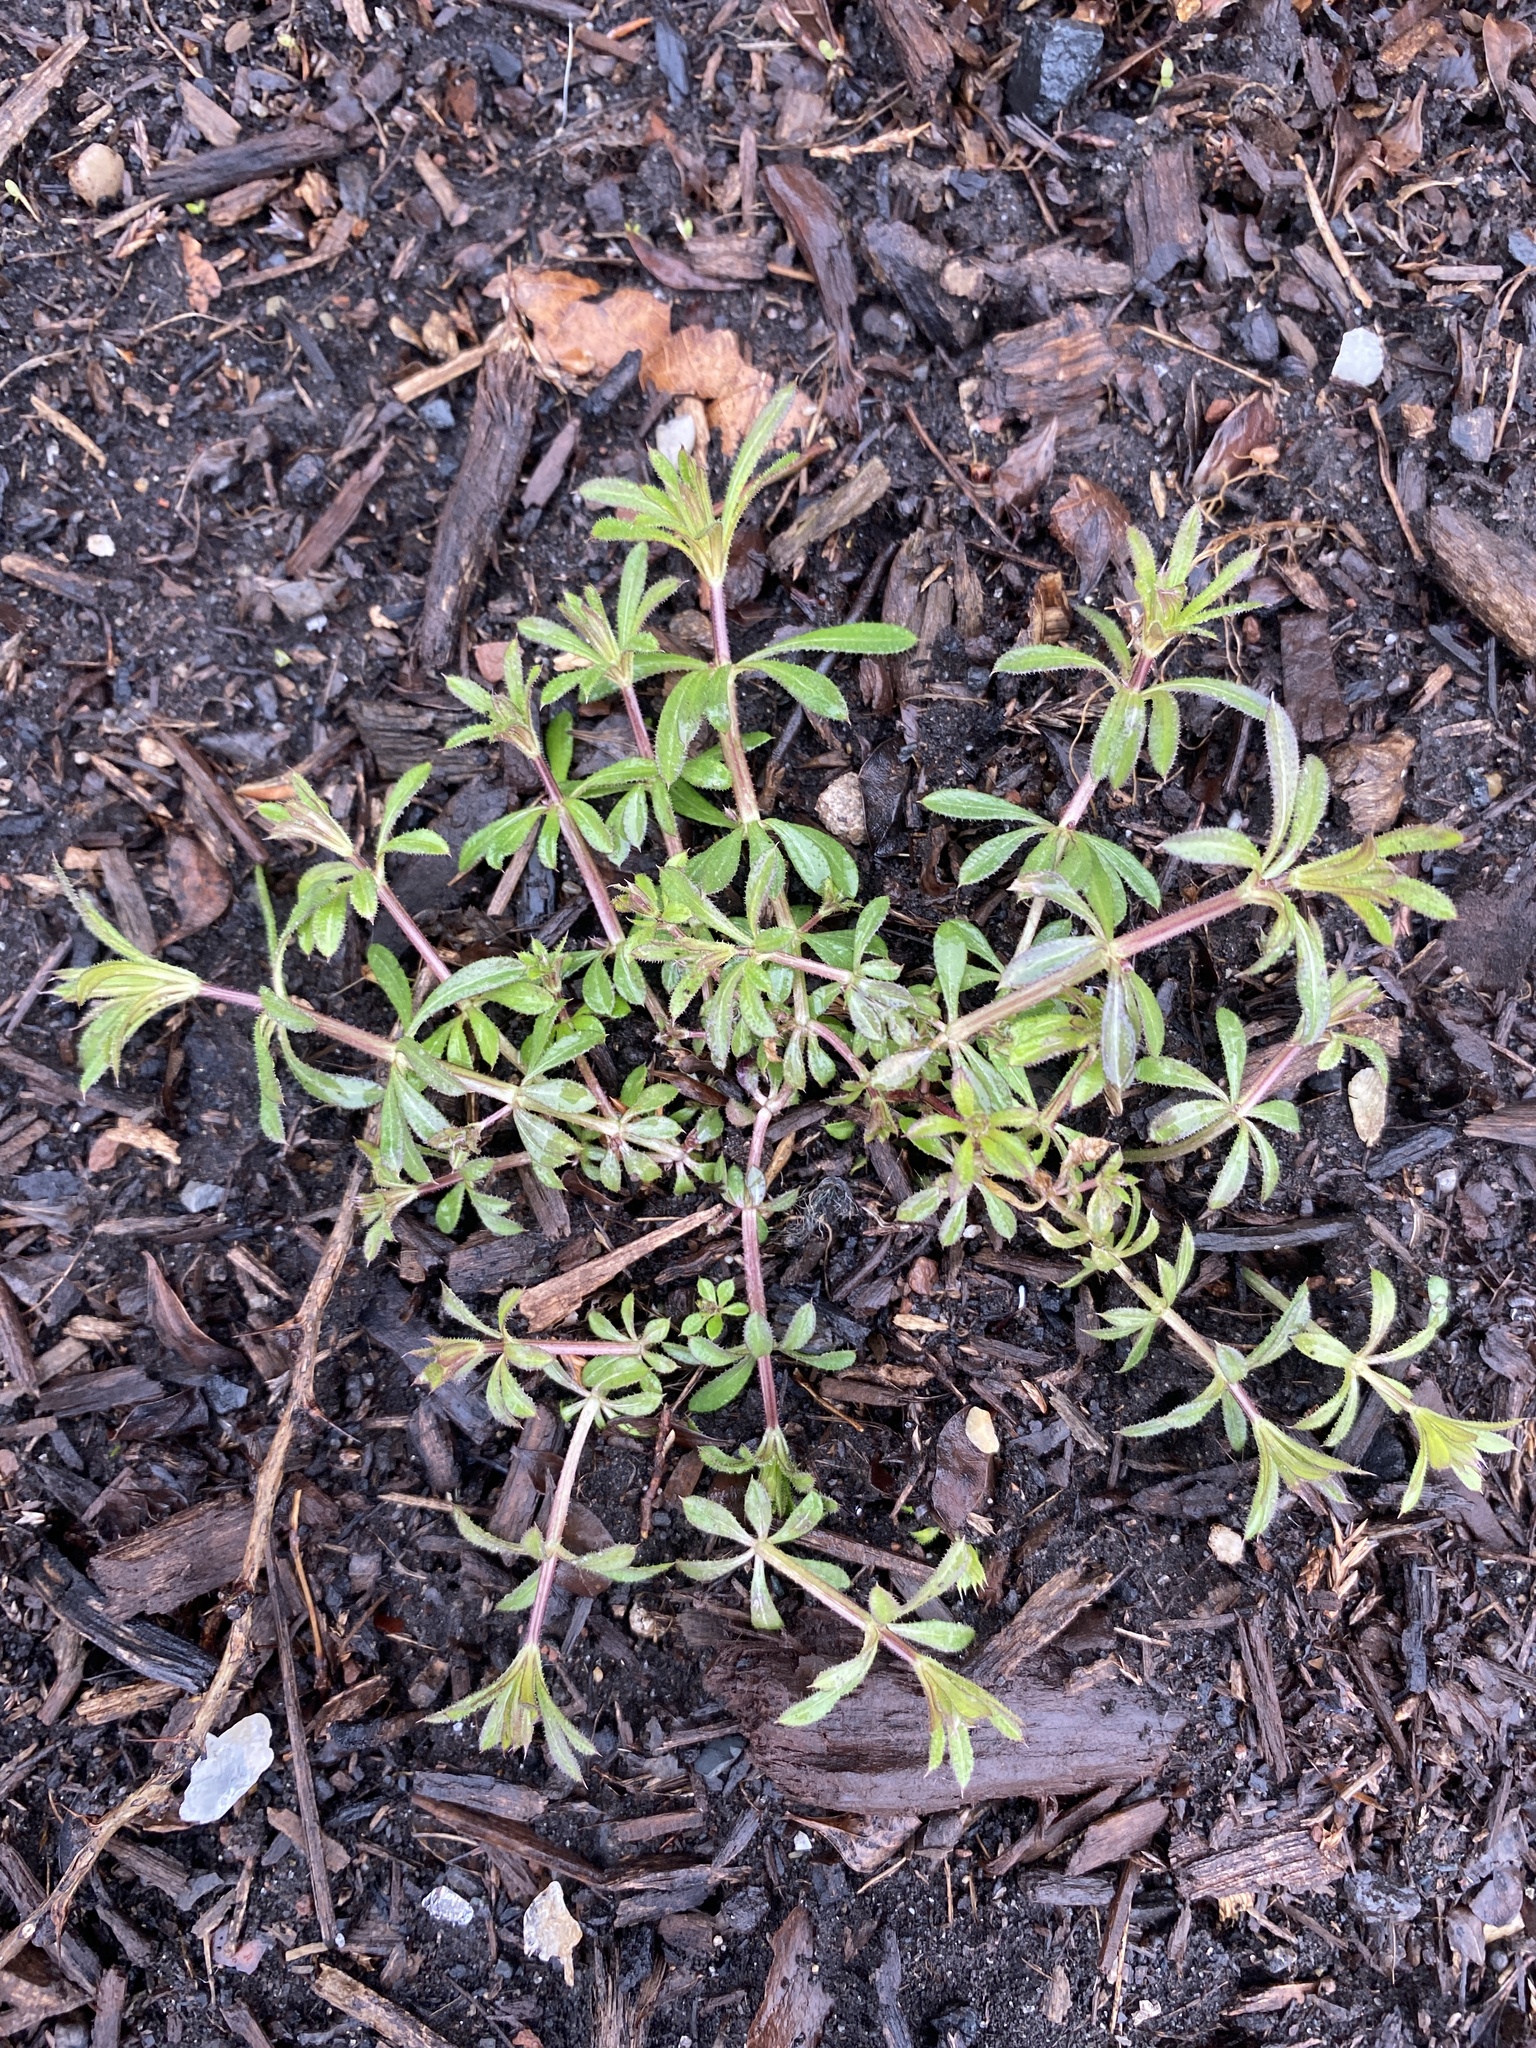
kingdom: Plantae
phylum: Tracheophyta
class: Magnoliopsida
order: Gentianales
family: Rubiaceae
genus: Galium
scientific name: Galium aparine
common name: Cleavers
